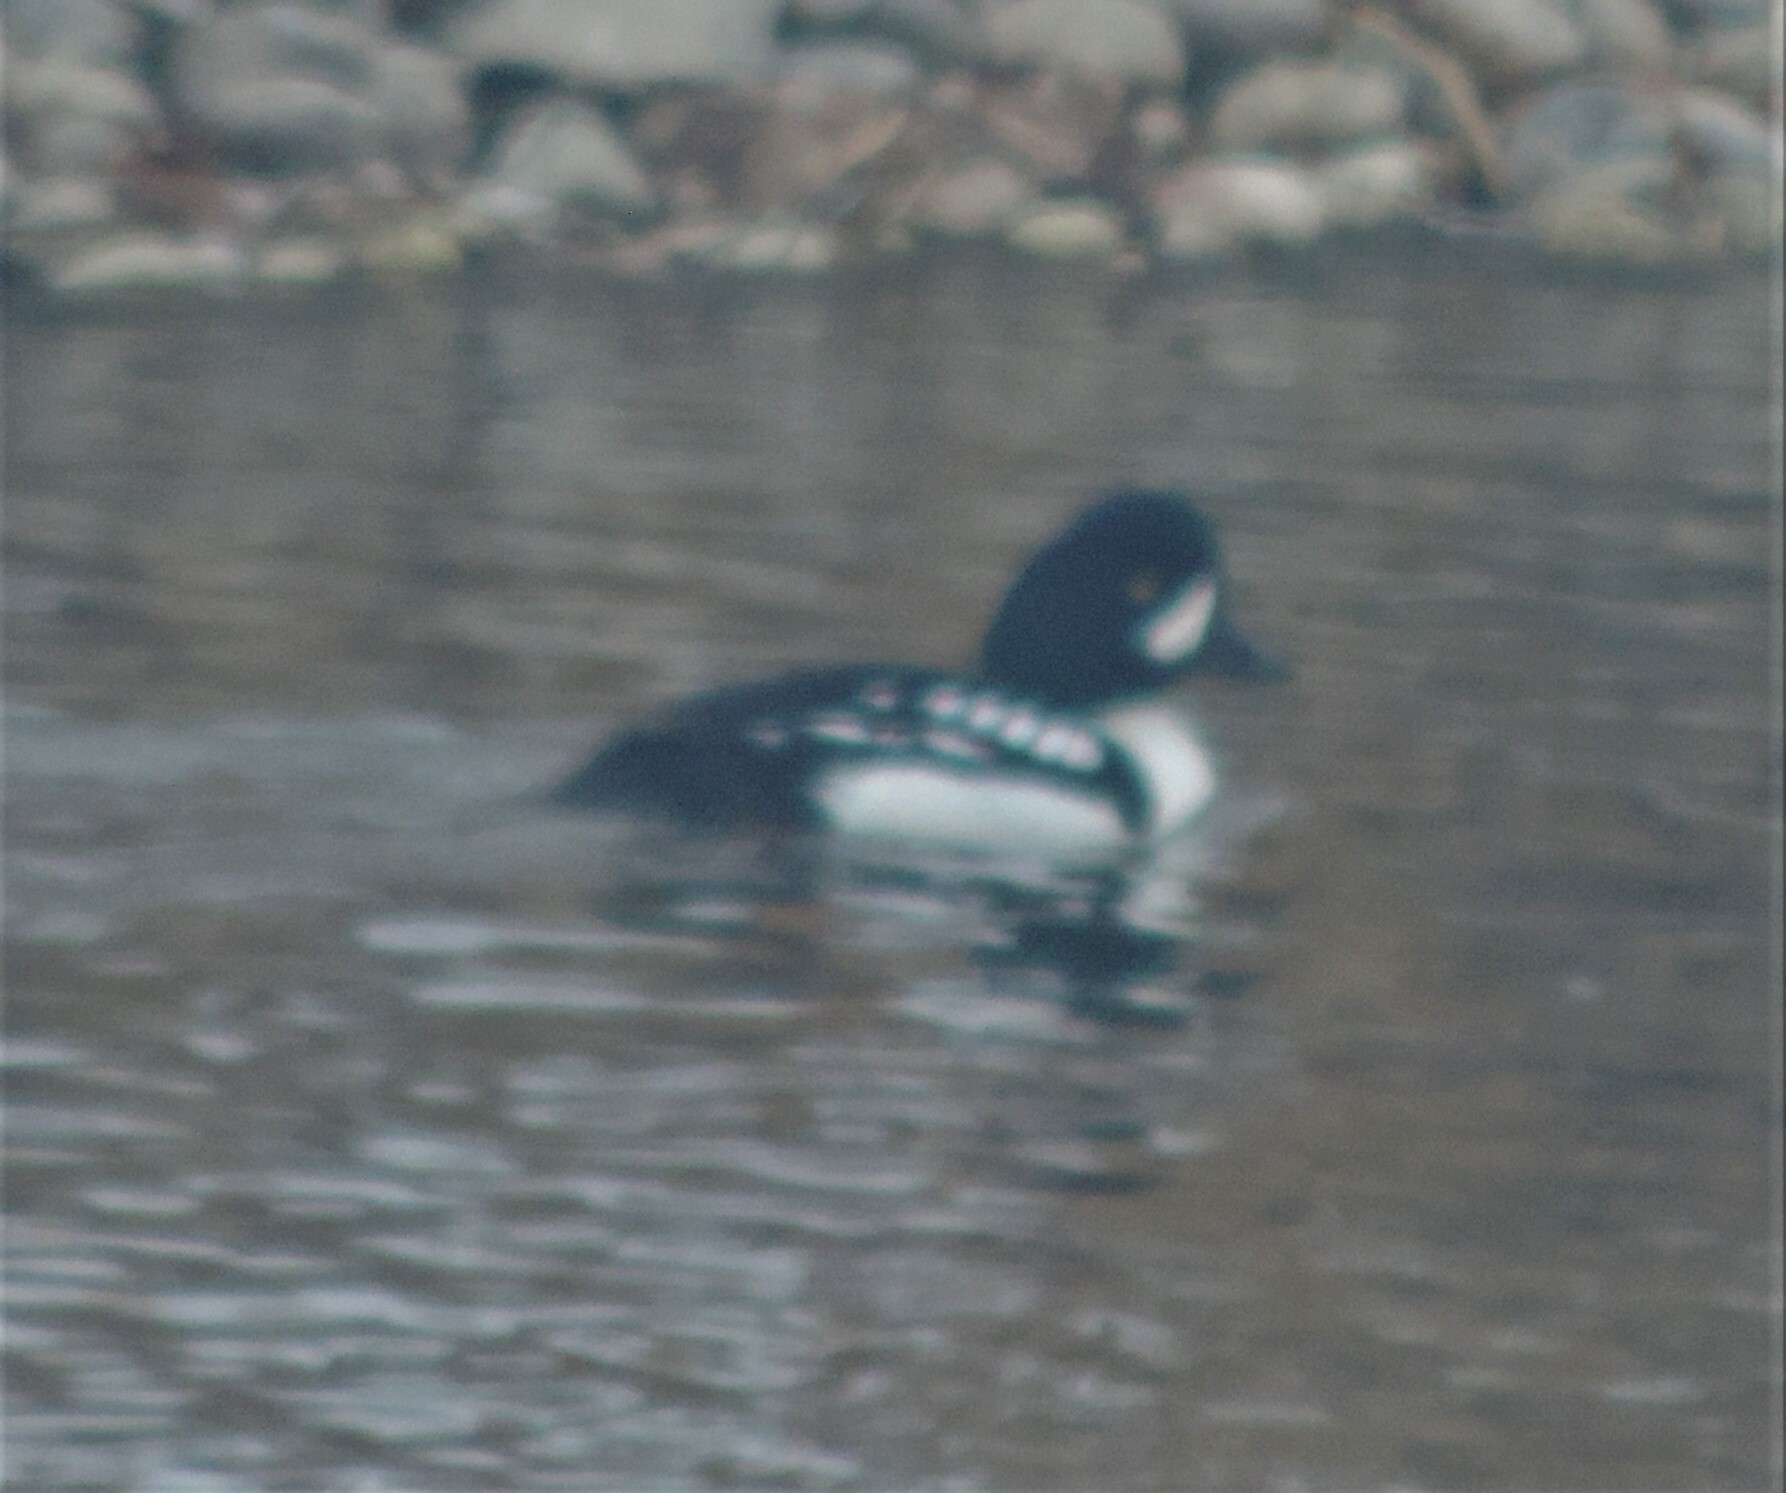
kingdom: Animalia
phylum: Chordata
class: Aves
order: Anseriformes
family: Anatidae
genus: Bucephala
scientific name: Bucephala islandica
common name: Barrow's goldeneye
